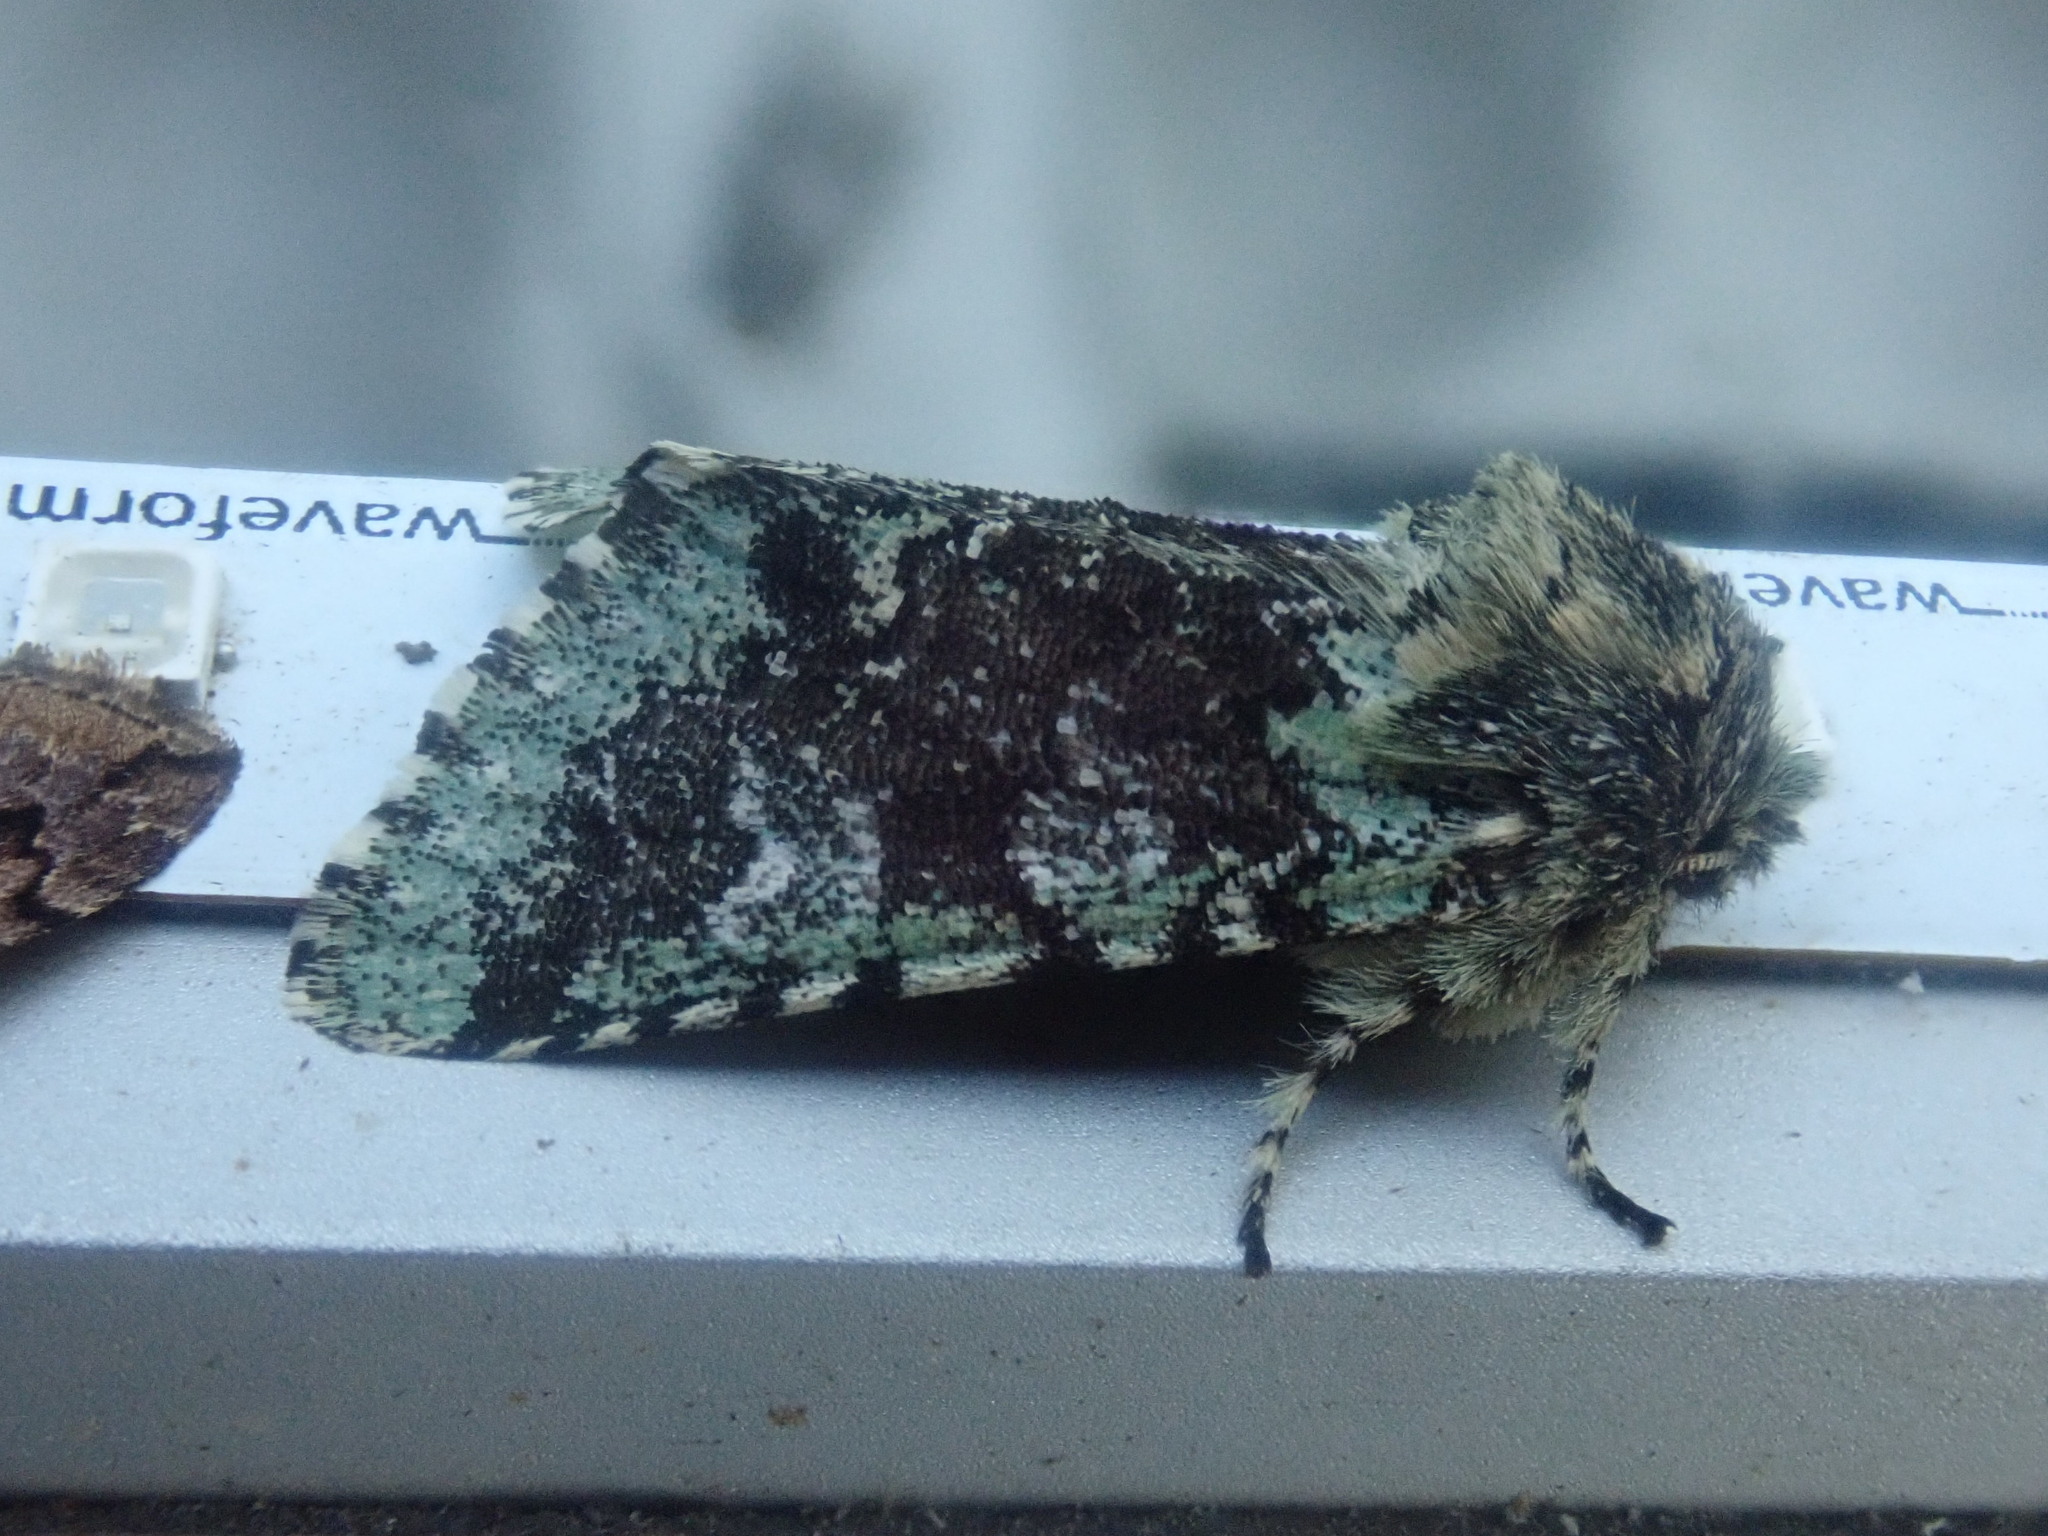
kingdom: Animalia
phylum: Arthropoda
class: Insecta
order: Lepidoptera
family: Noctuidae
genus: Feralia
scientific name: Feralia major
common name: Major sallow
